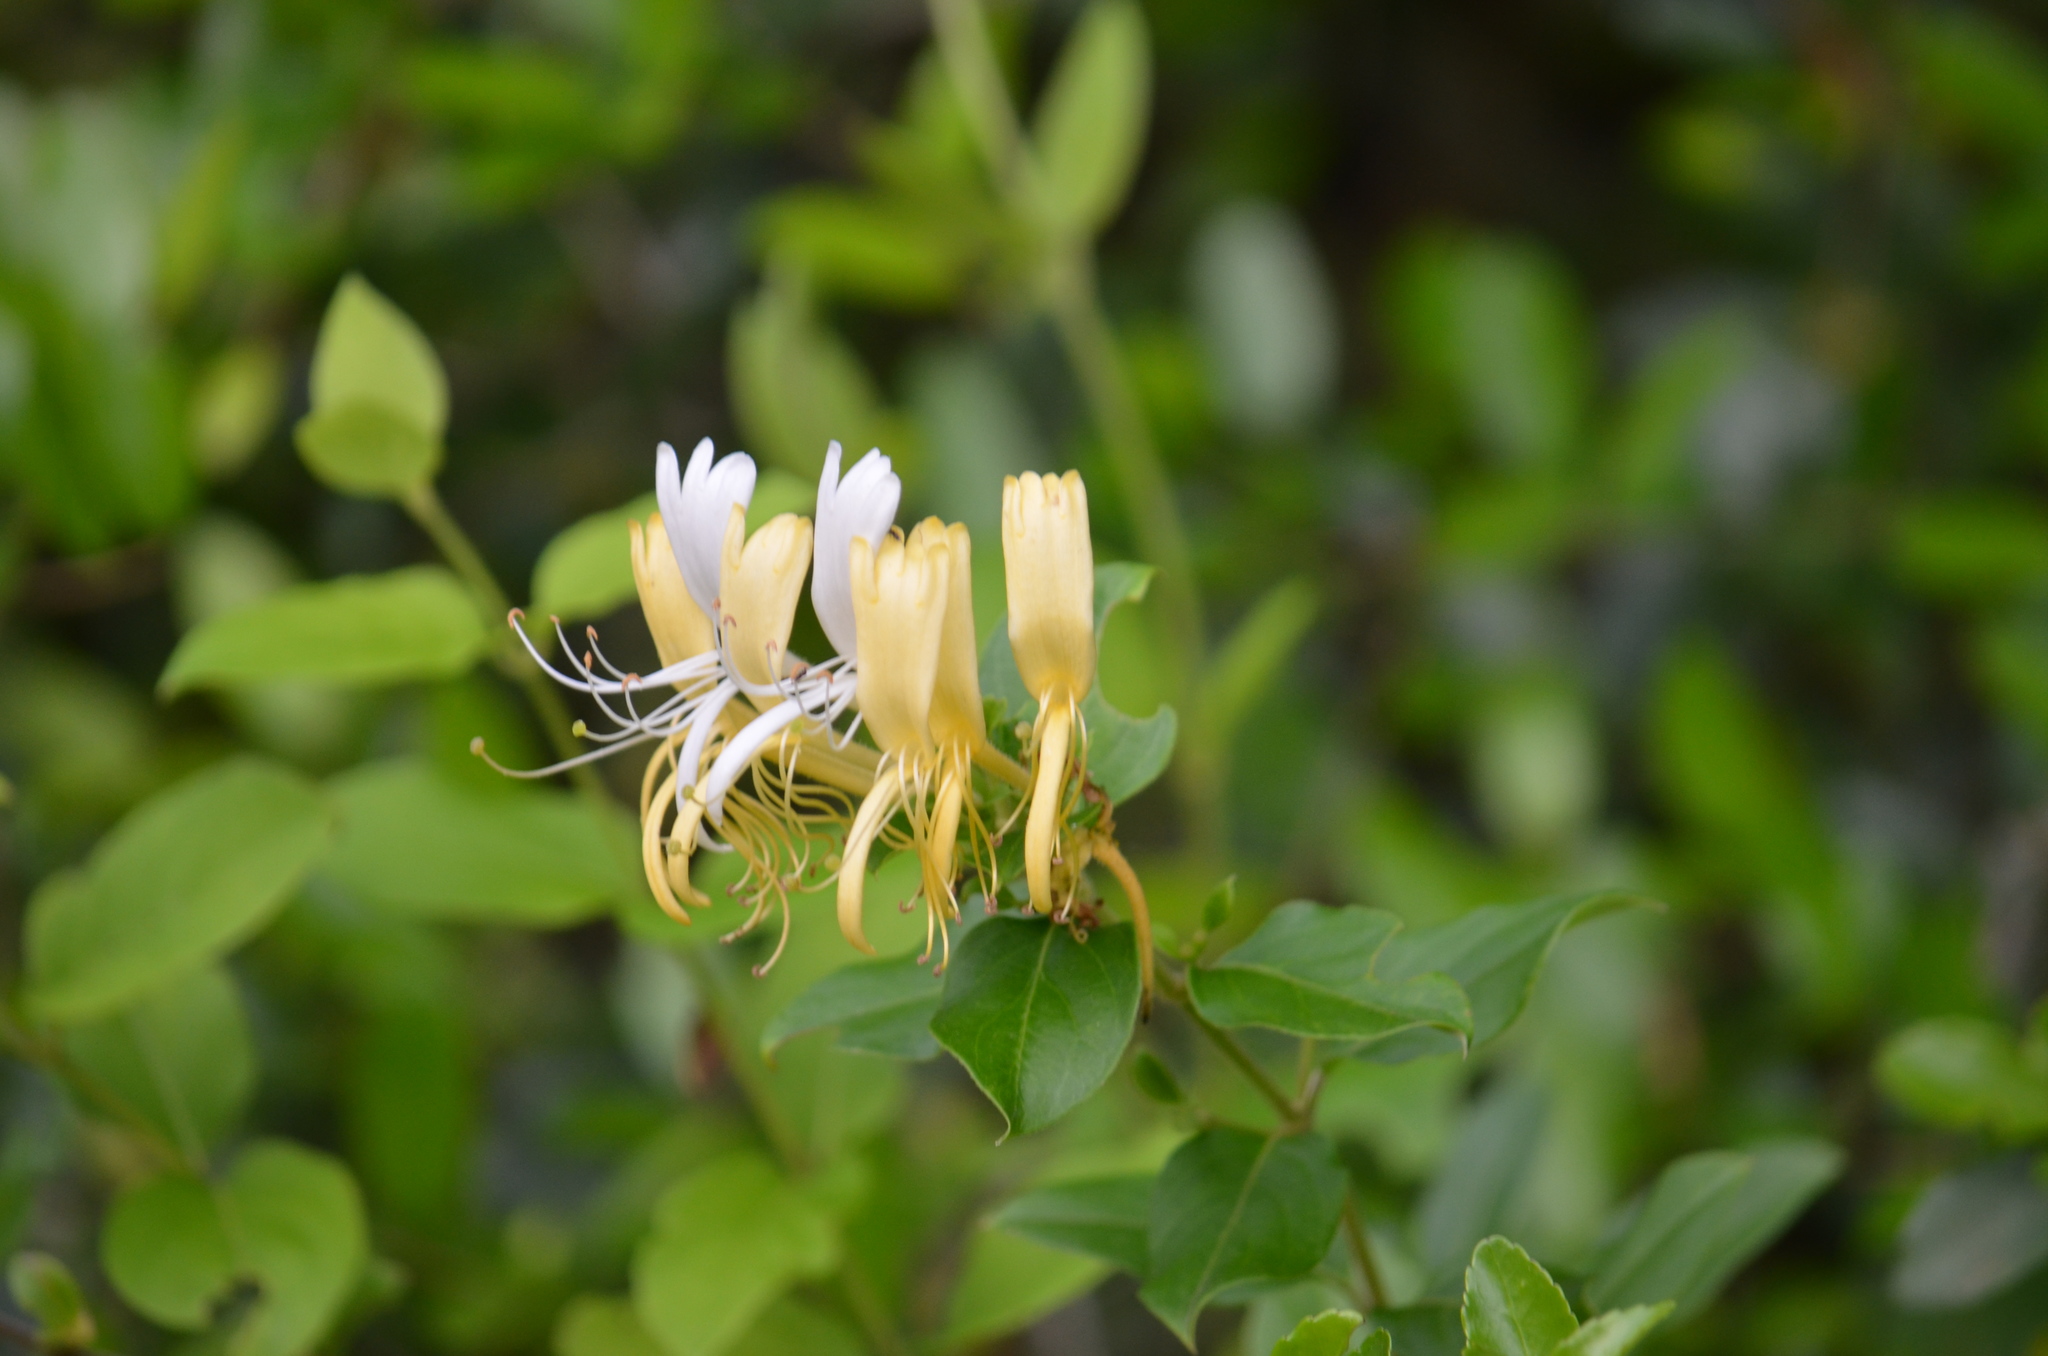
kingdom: Plantae
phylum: Tracheophyta
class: Magnoliopsida
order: Dipsacales
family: Caprifoliaceae
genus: Lonicera
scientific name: Lonicera japonica
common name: Japanese honeysuckle
